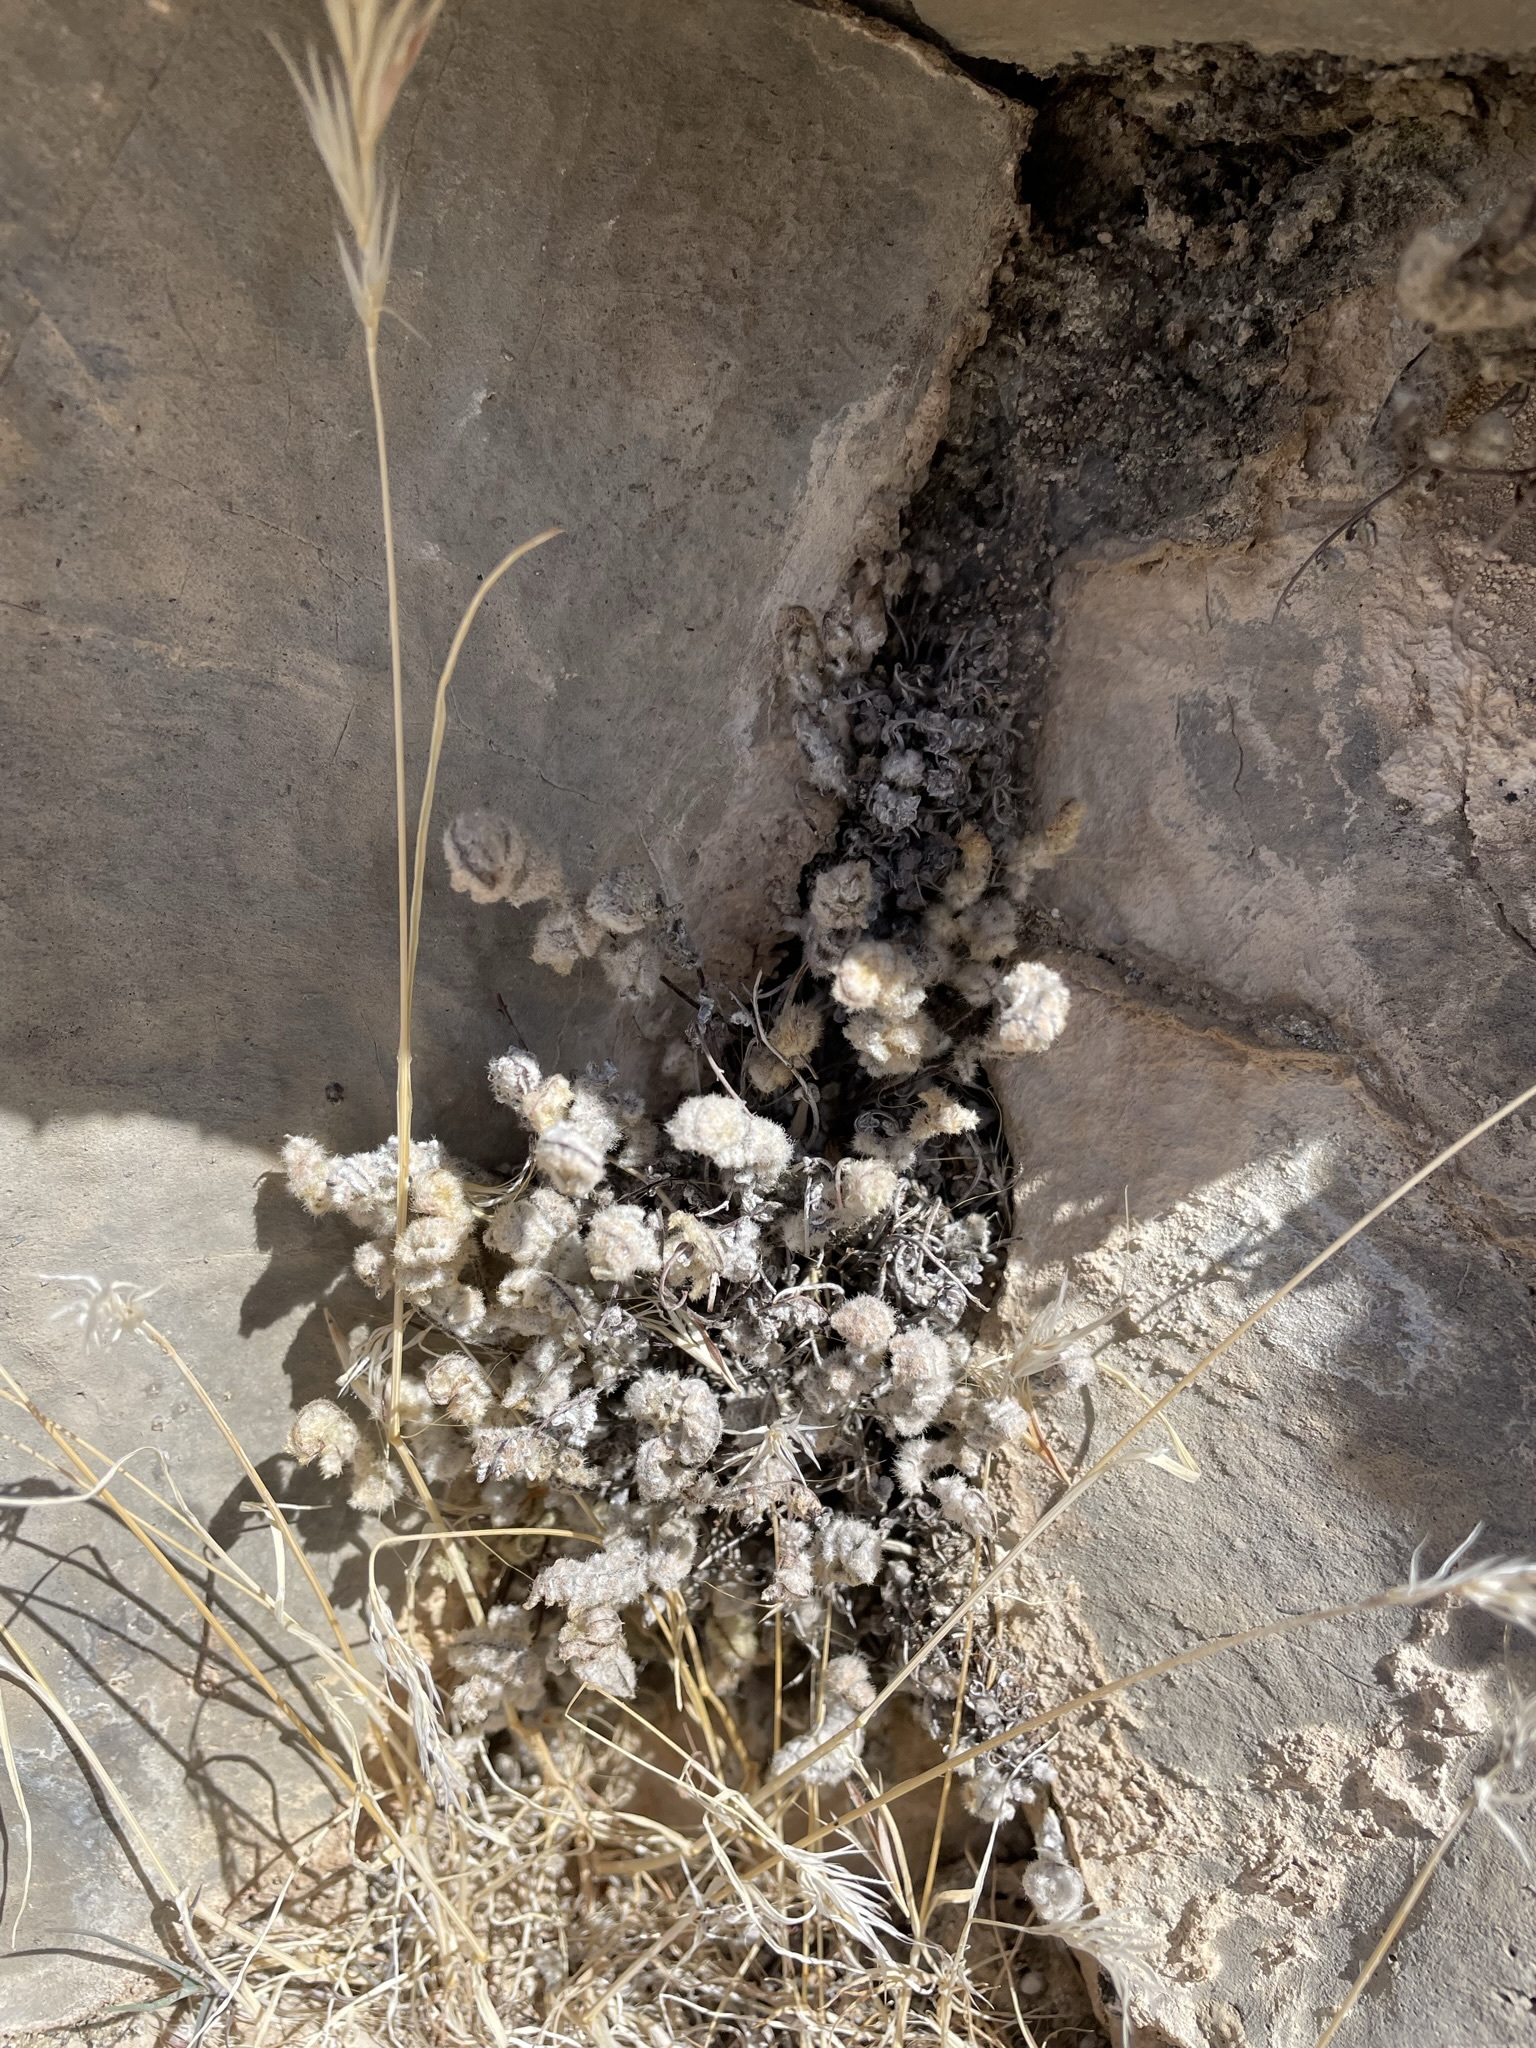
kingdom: Plantae
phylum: Tracheophyta
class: Polypodiopsida
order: Polypodiales
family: Pteridaceae
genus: Myriopteris
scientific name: Myriopteris parryi
